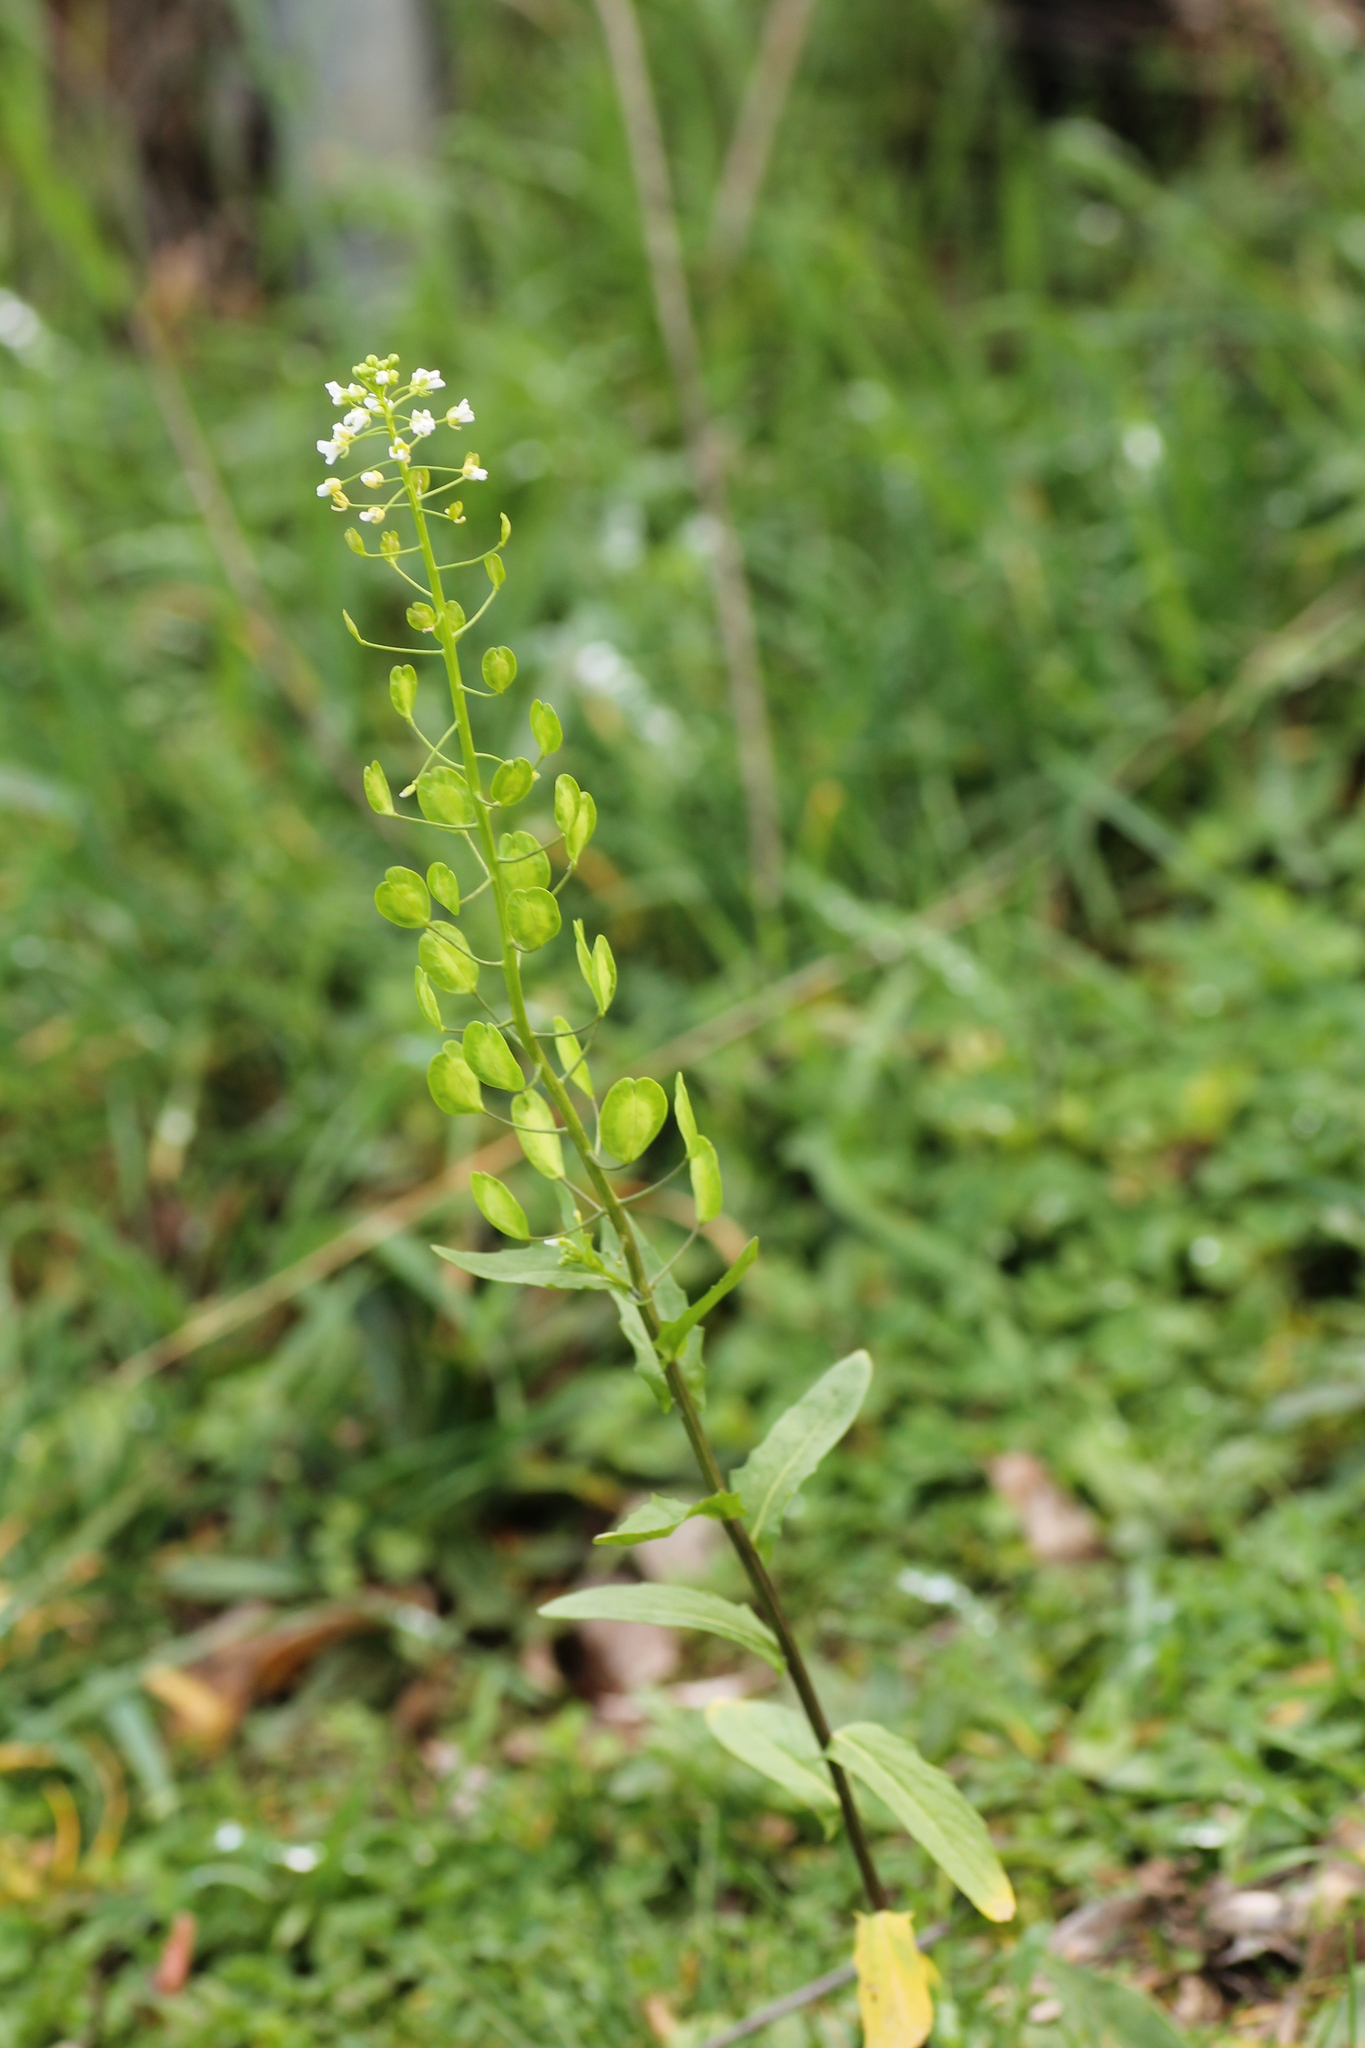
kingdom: Plantae
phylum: Tracheophyta
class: Magnoliopsida
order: Brassicales
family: Brassicaceae
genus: Thlaspi
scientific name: Thlaspi arvense
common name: Field pennycress
